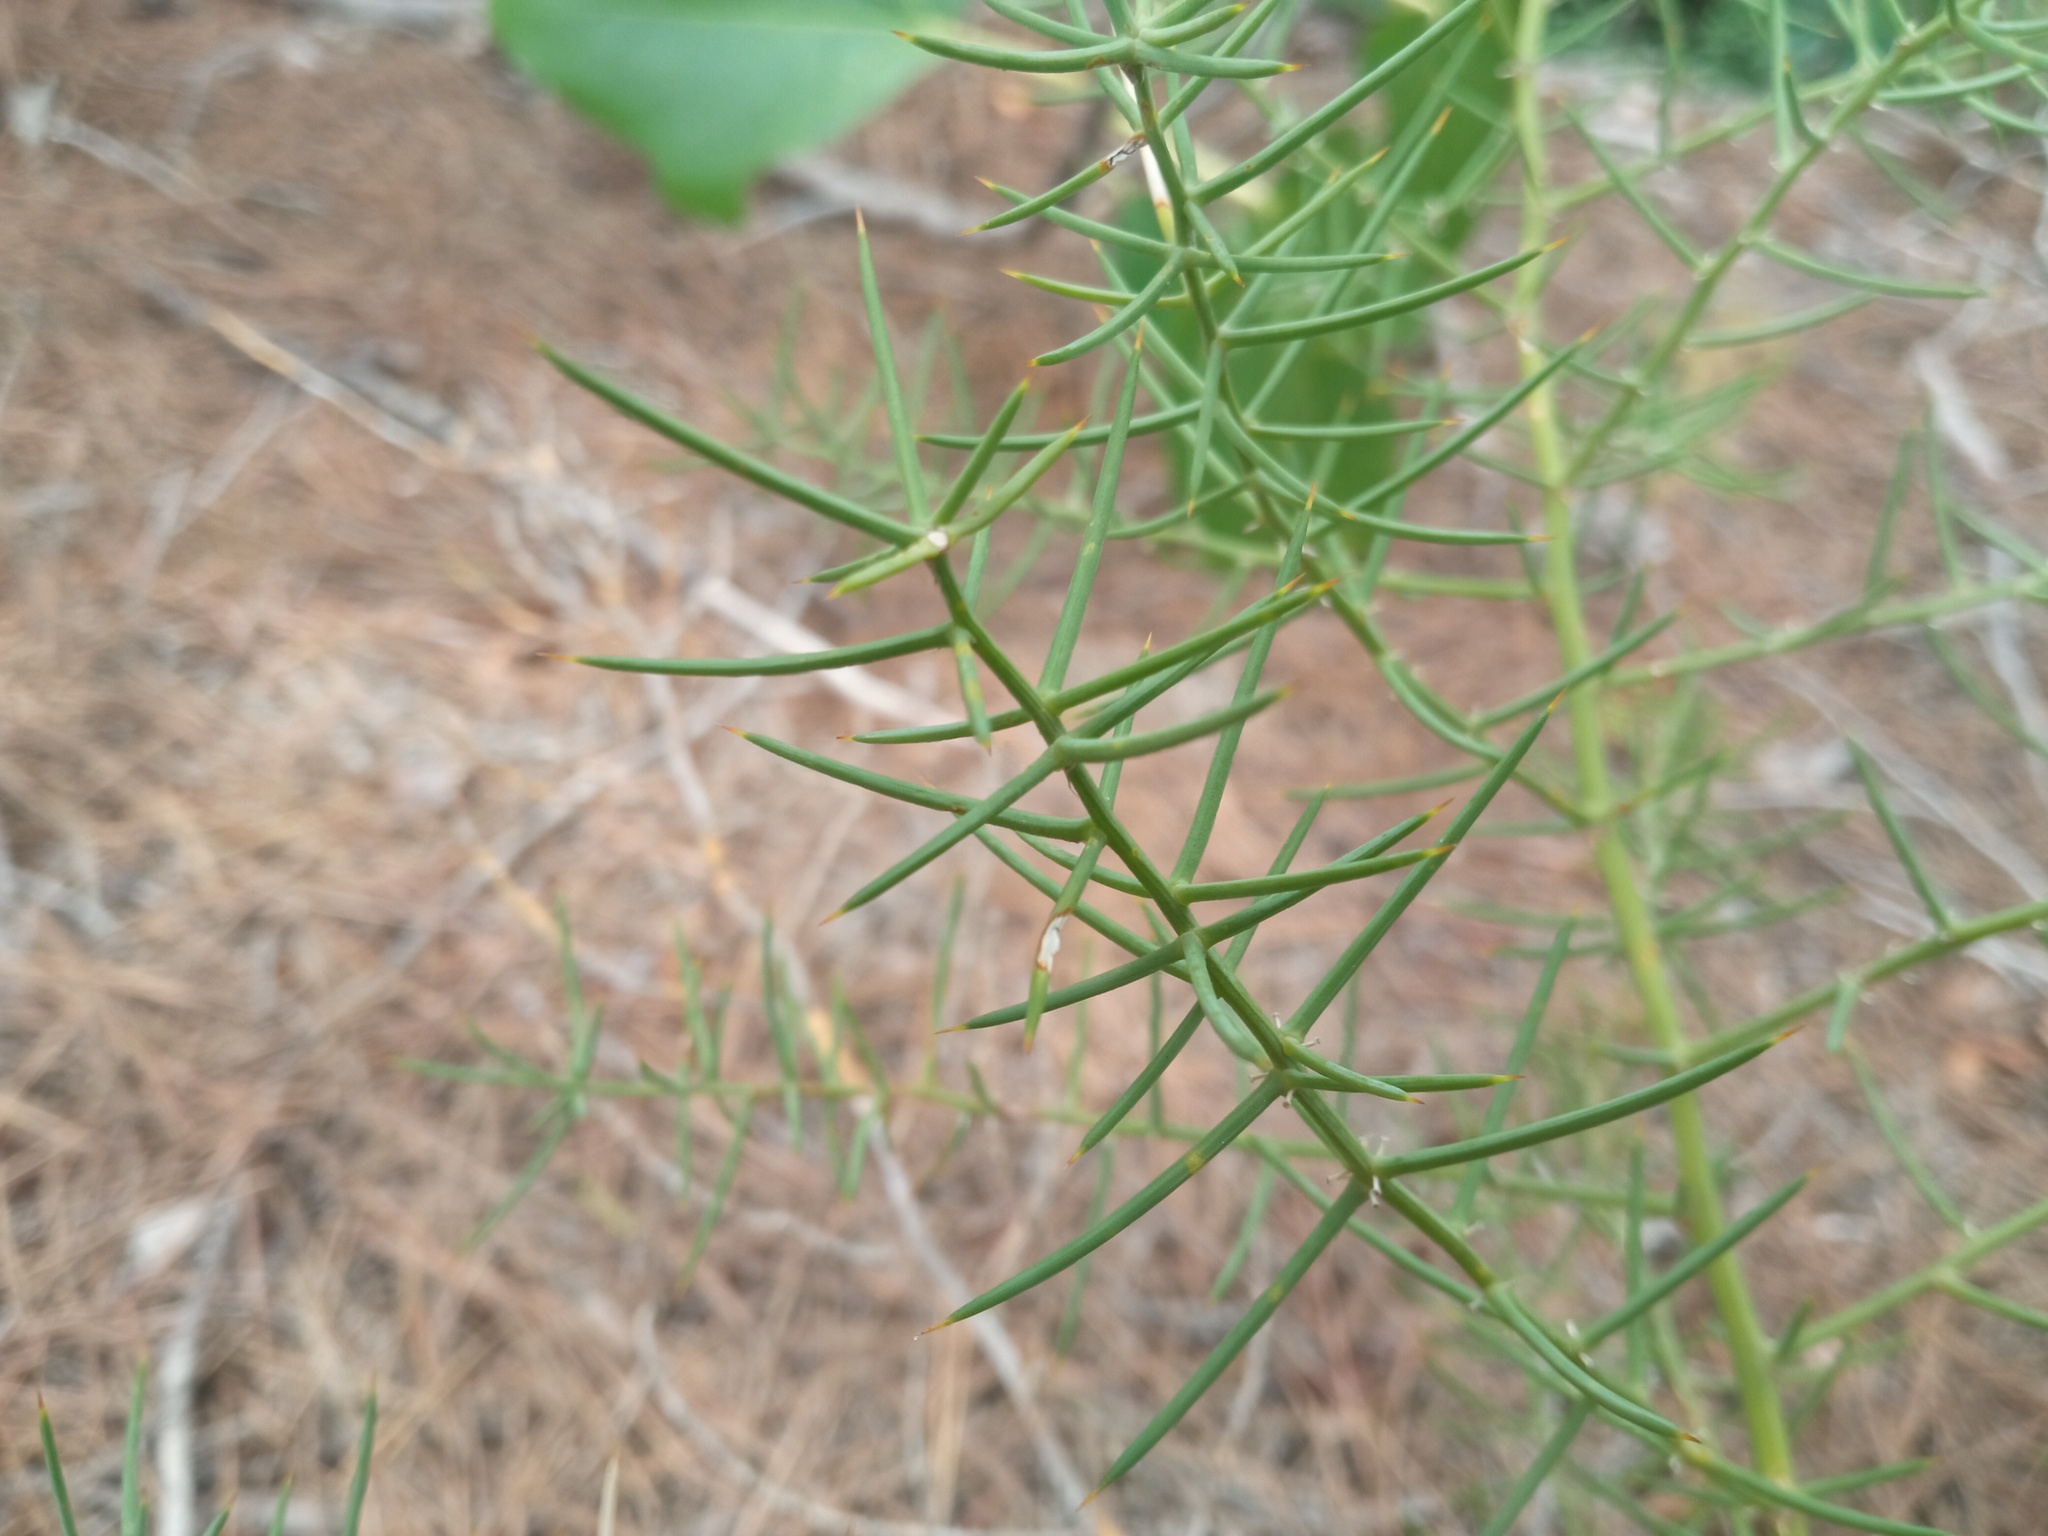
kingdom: Plantae
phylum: Tracheophyta
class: Liliopsida
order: Asparagales
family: Asparagaceae
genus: Asparagus
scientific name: Asparagus horridus
